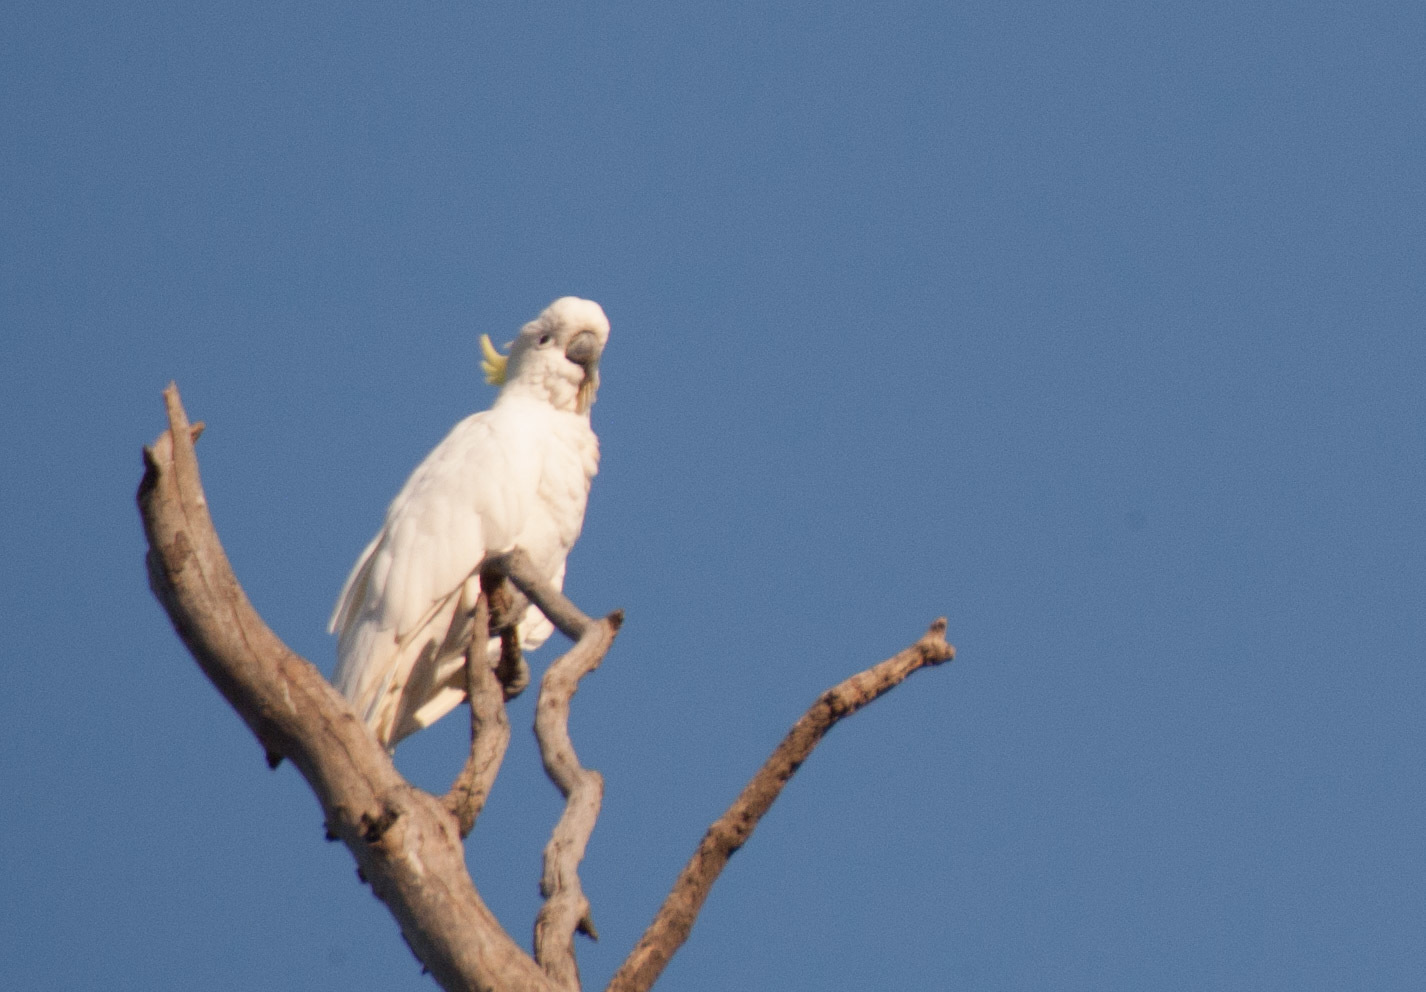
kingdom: Animalia
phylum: Chordata
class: Aves
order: Psittaciformes
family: Psittacidae
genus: Cacatua
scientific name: Cacatua galerita
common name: Sulphur-crested cockatoo
